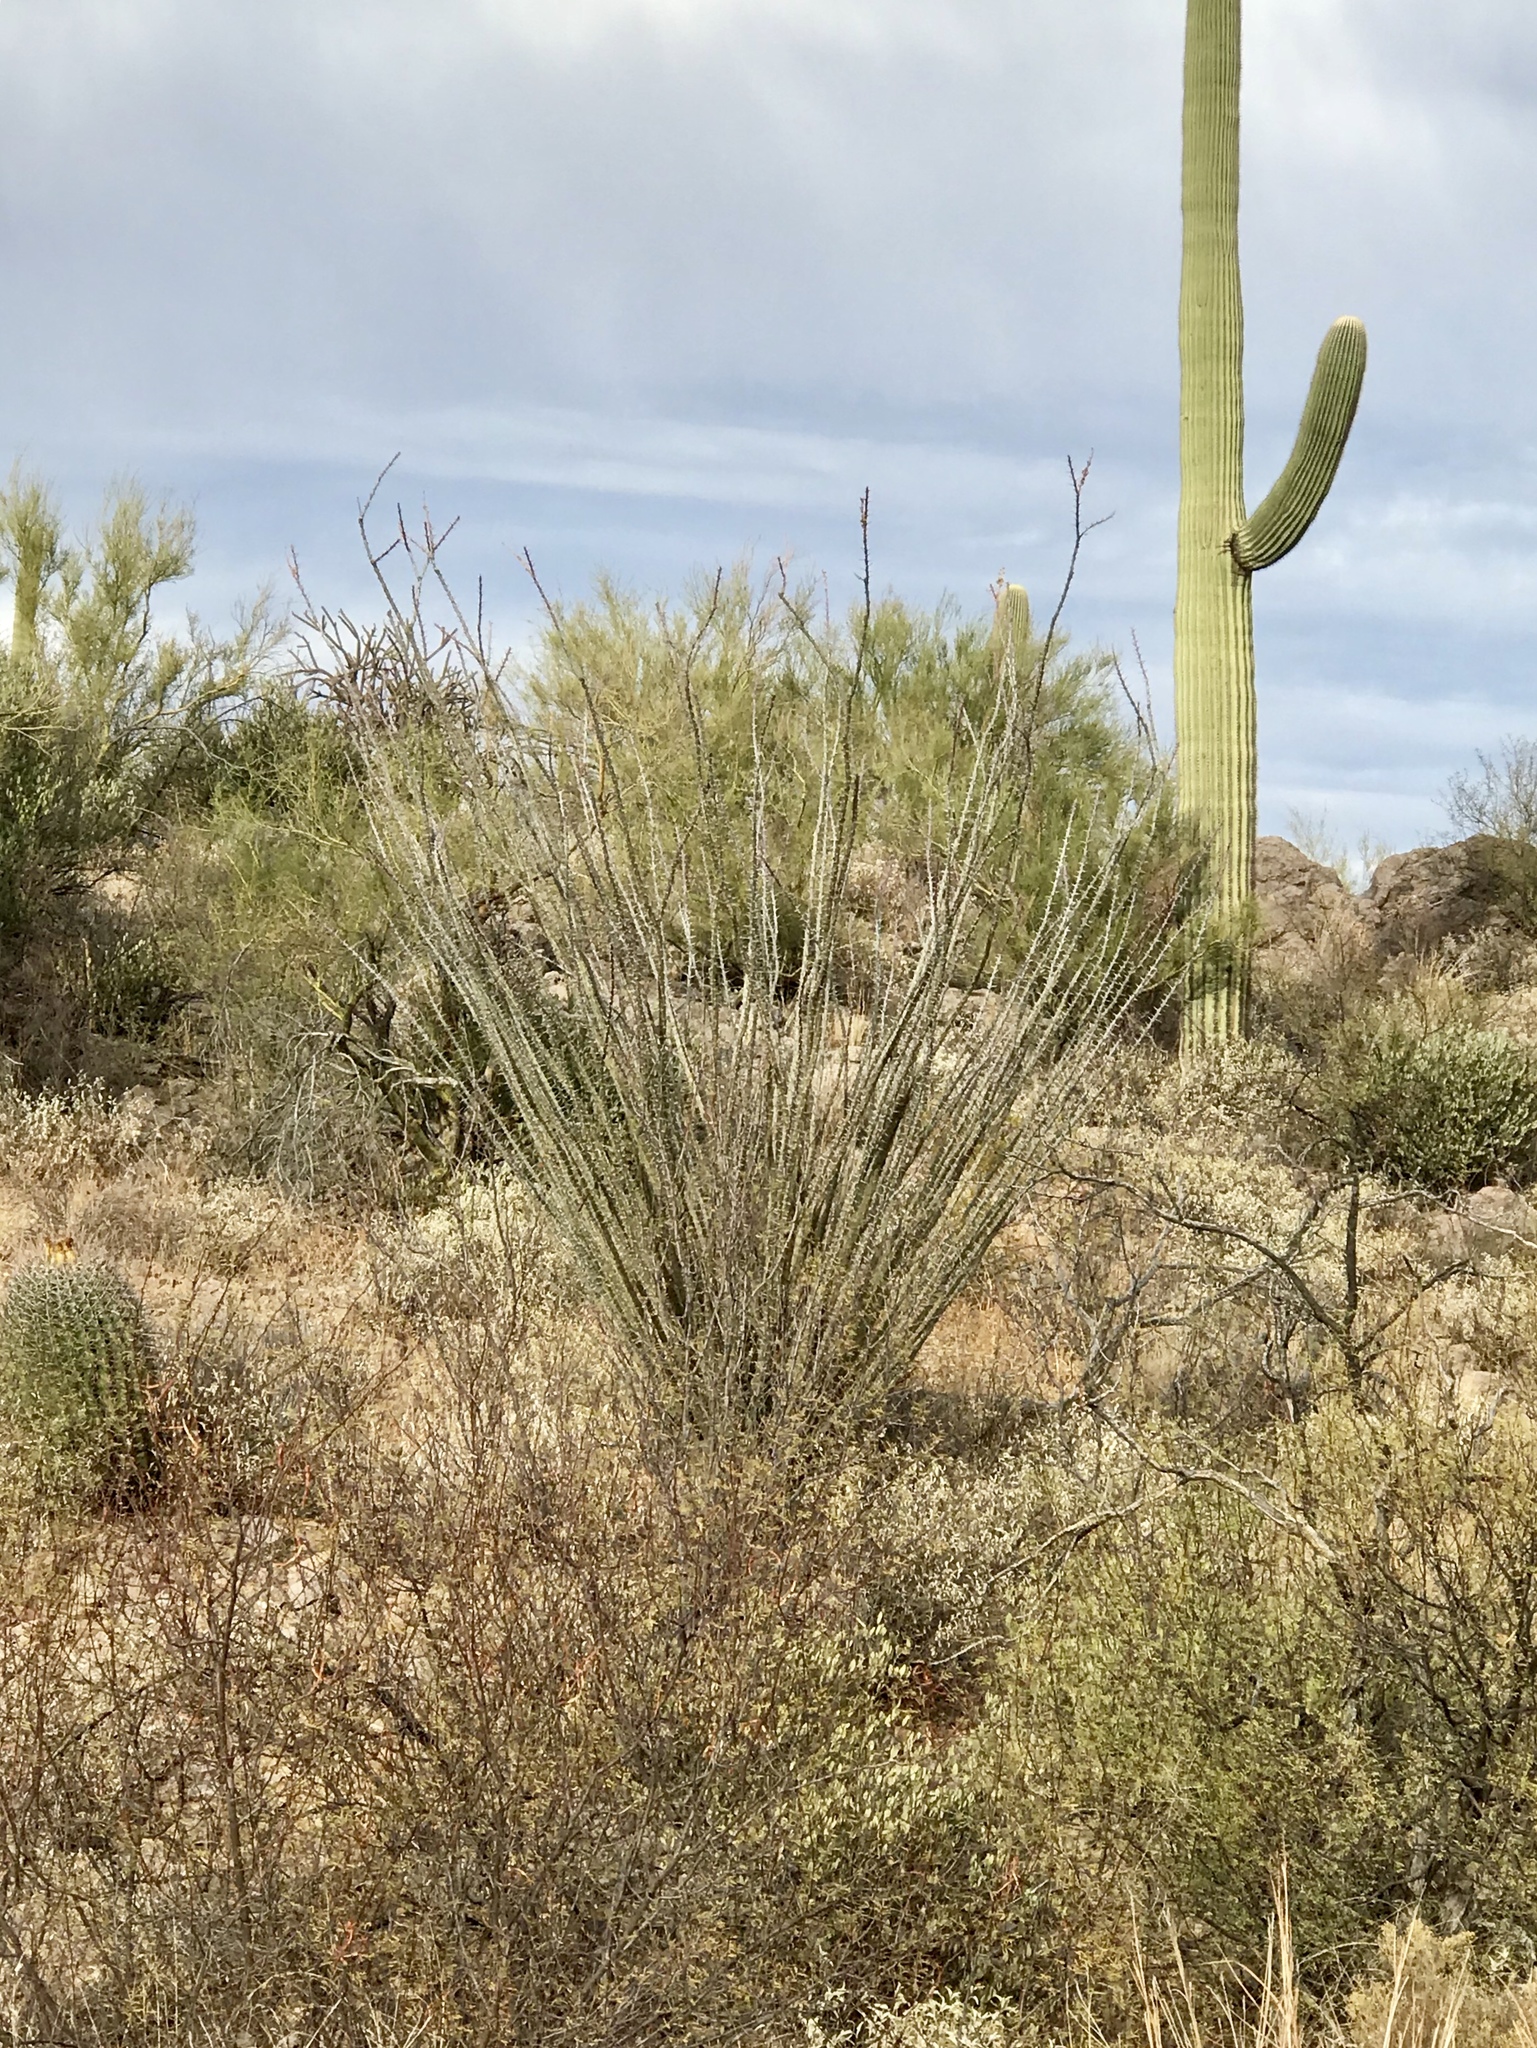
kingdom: Plantae
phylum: Tracheophyta
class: Magnoliopsida
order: Ericales
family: Fouquieriaceae
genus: Fouquieria
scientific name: Fouquieria splendens
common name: Vine-cactus
